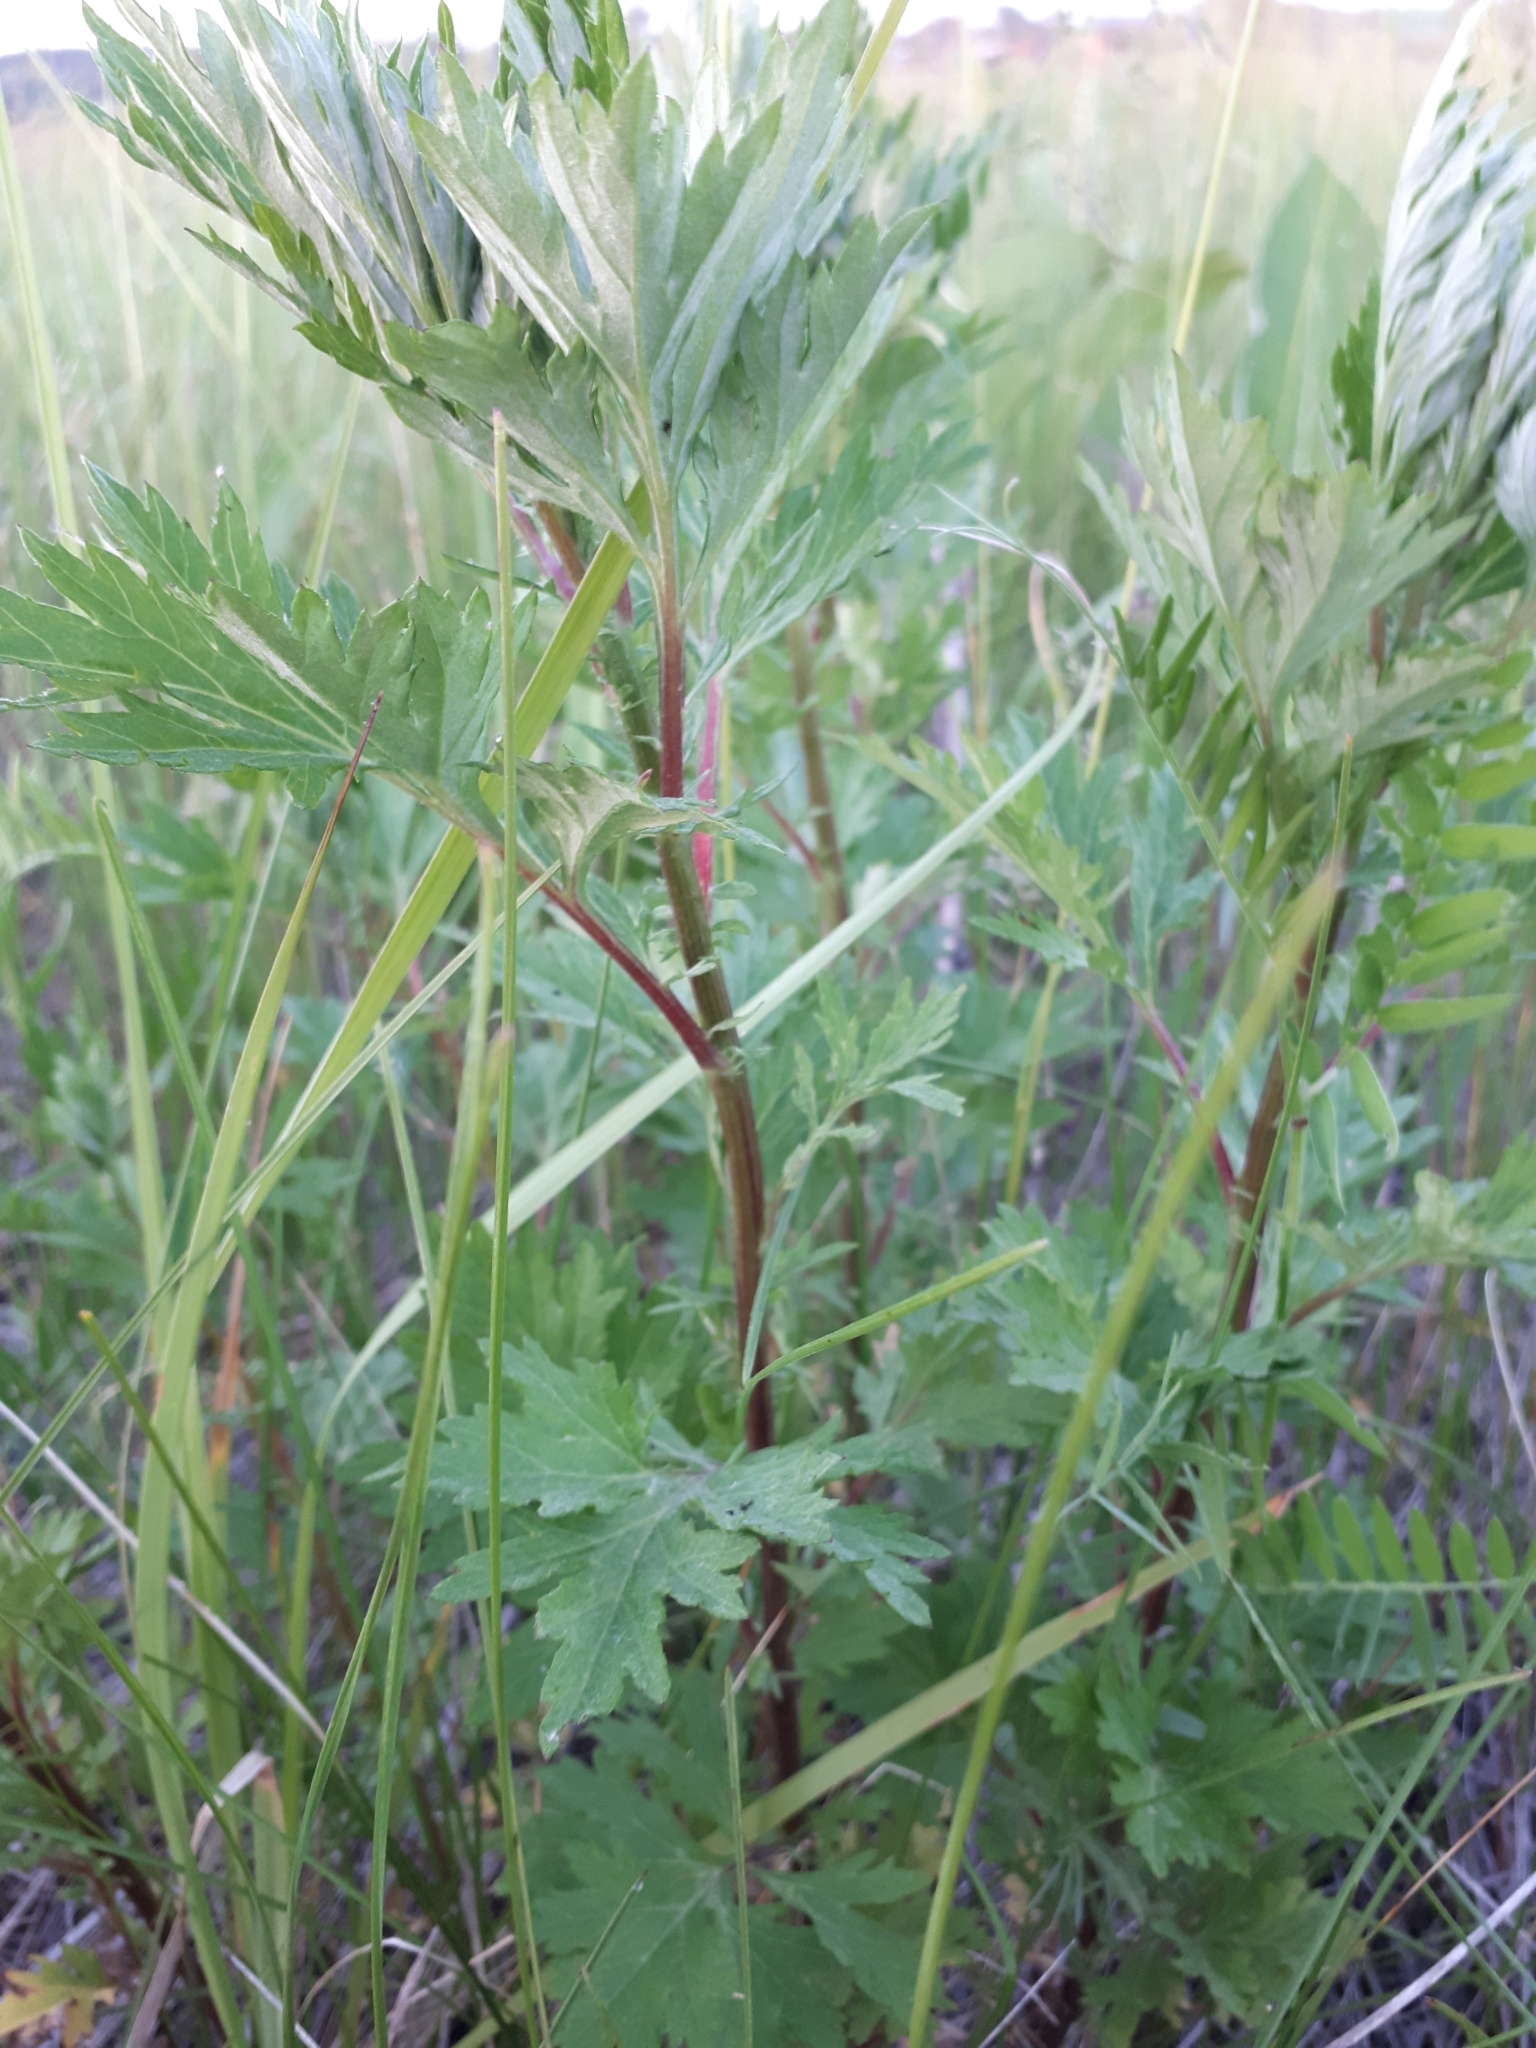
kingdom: Plantae
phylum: Tracheophyta
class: Magnoliopsida
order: Asterales
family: Asteraceae
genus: Artemisia
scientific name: Artemisia vulgaris
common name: Mugwort
